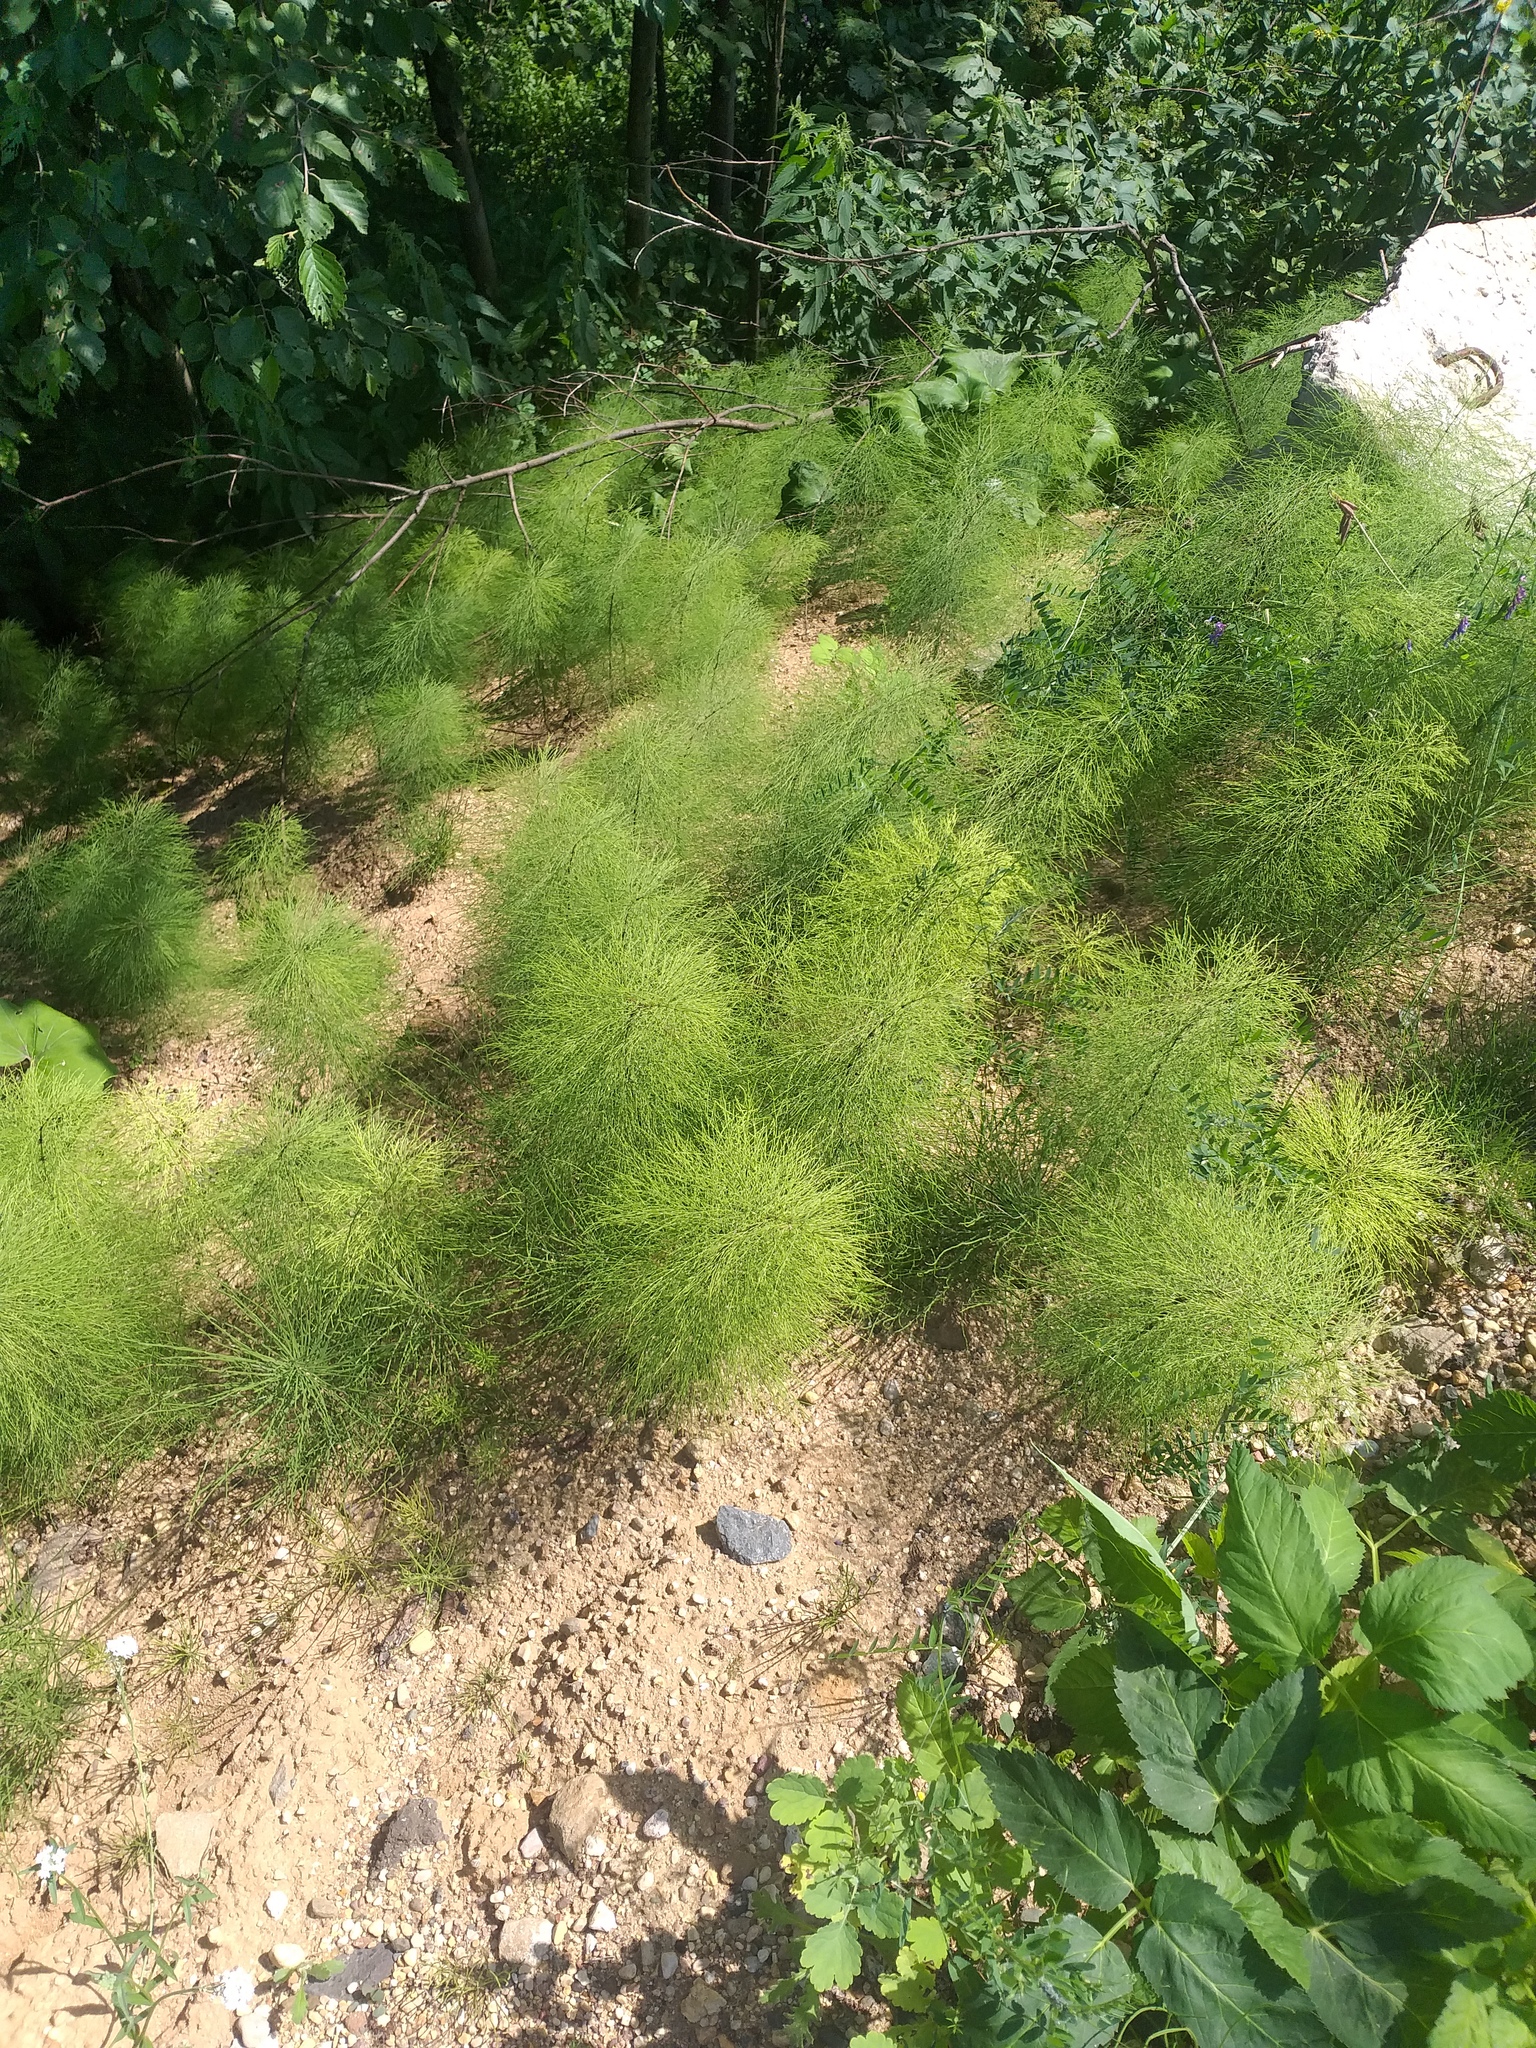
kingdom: Plantae
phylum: Tracheophyta
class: Polypodiopsida
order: Equisetales
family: Equisetaceae
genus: Equisetum
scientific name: Equisetum sylvaticum
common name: Wood horsetail
